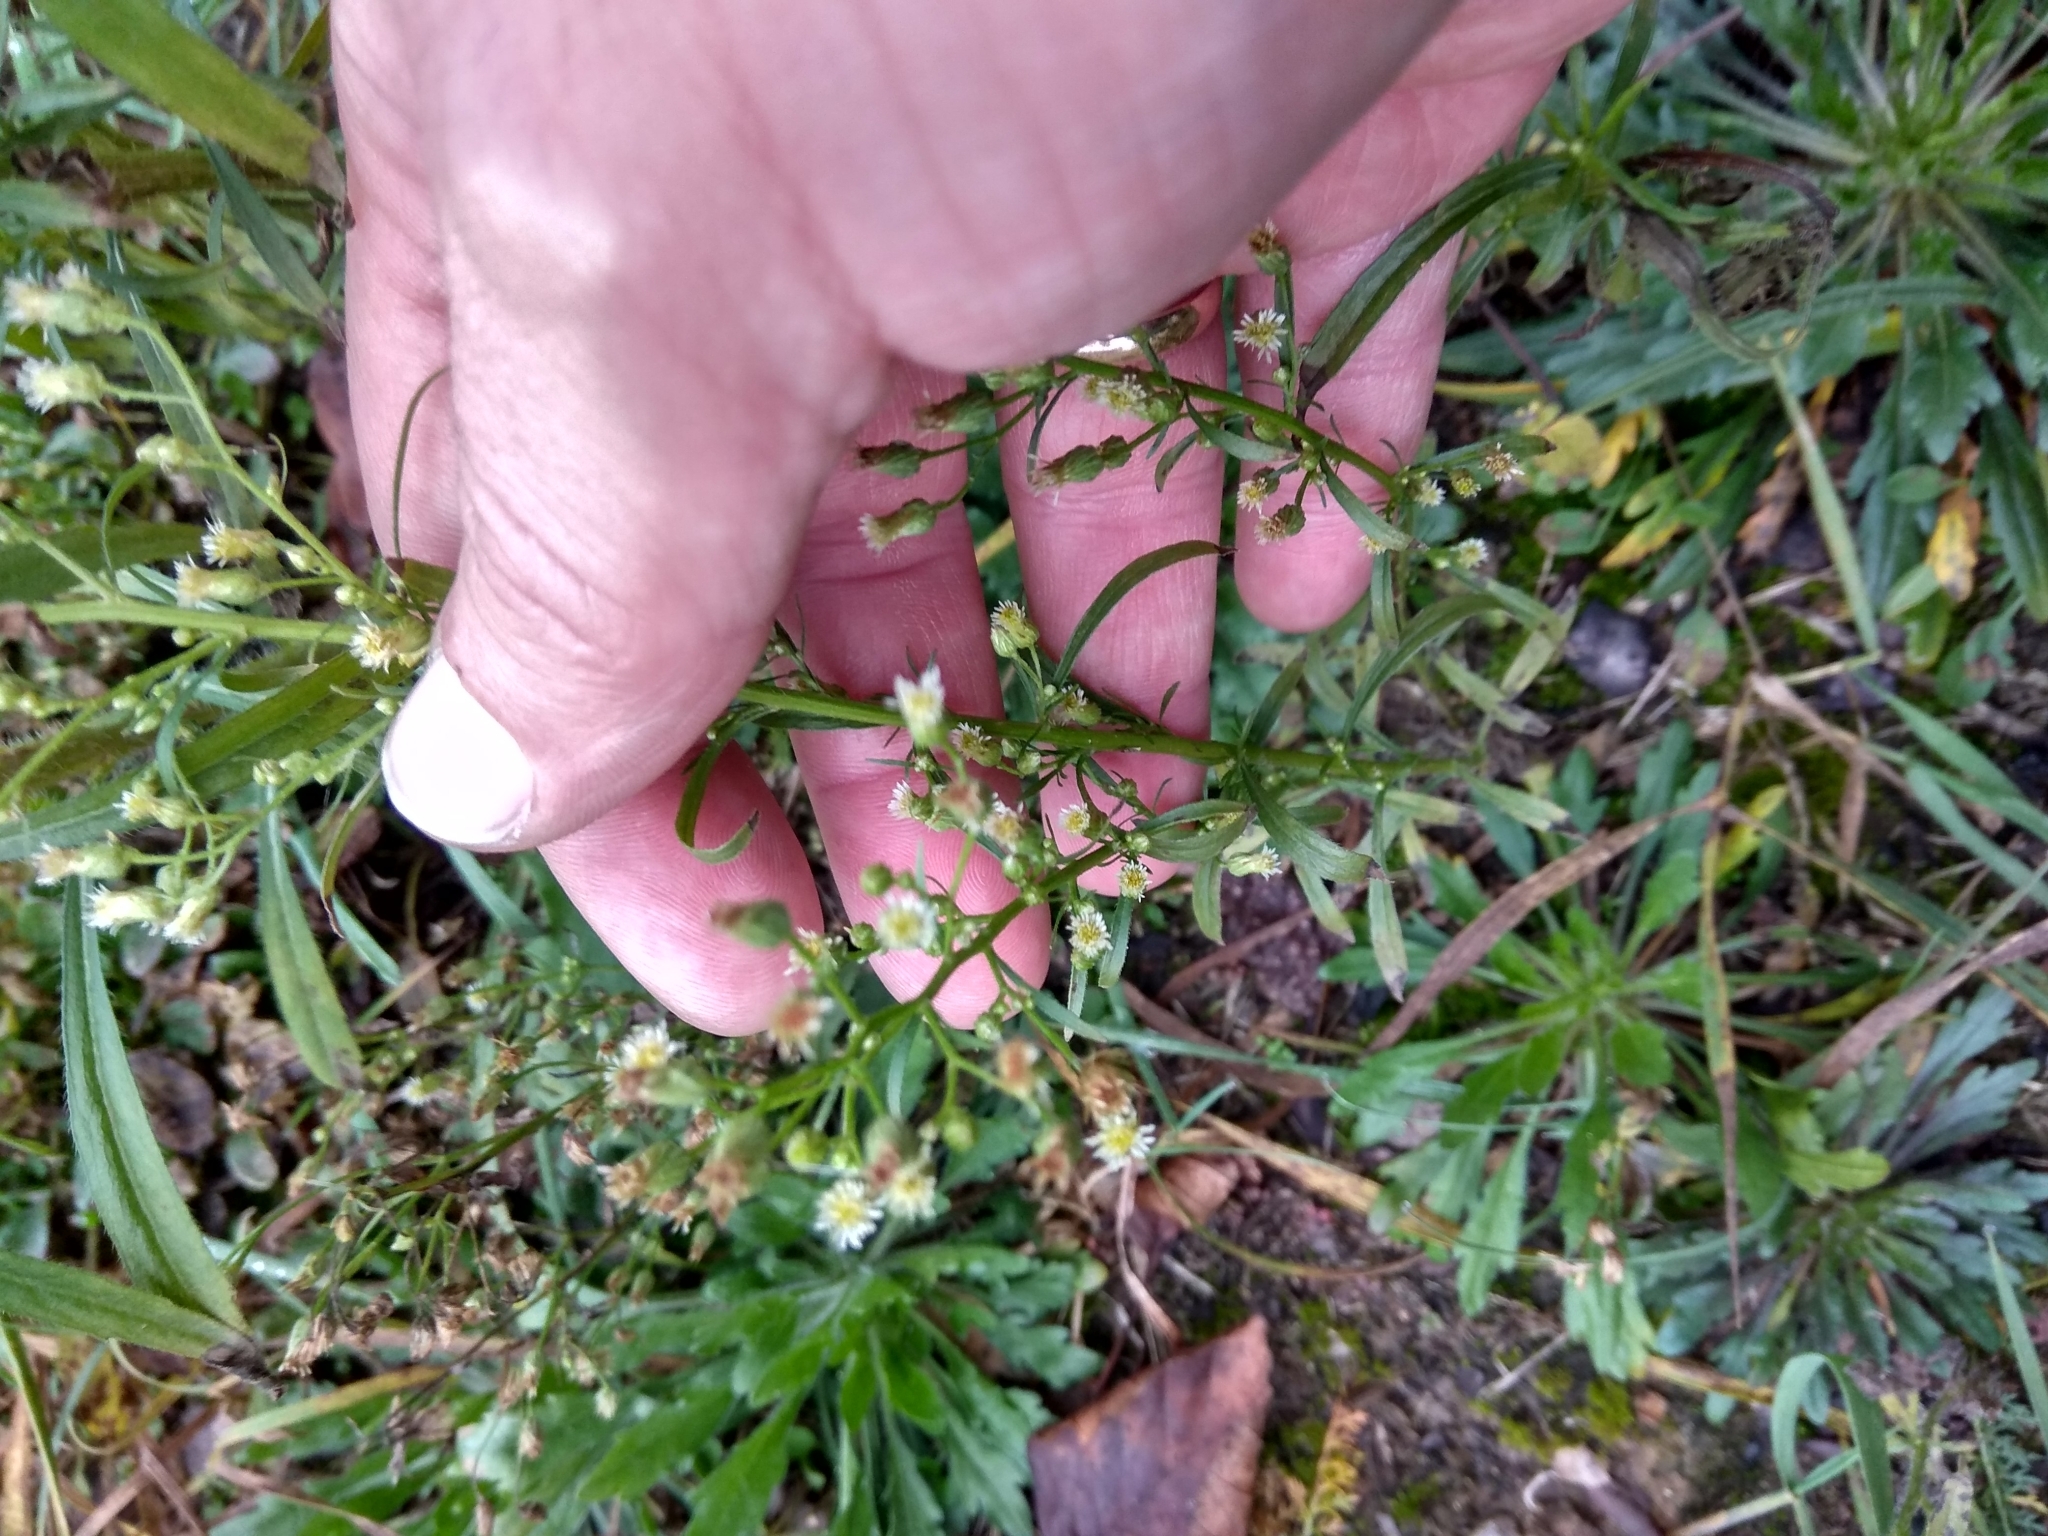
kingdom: Plantae
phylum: Tracheophyta
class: Magnoliopsida
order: Asterales
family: Asteraceae
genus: Erigeron
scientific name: Erigeron canadensis
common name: Canadian fleabane
